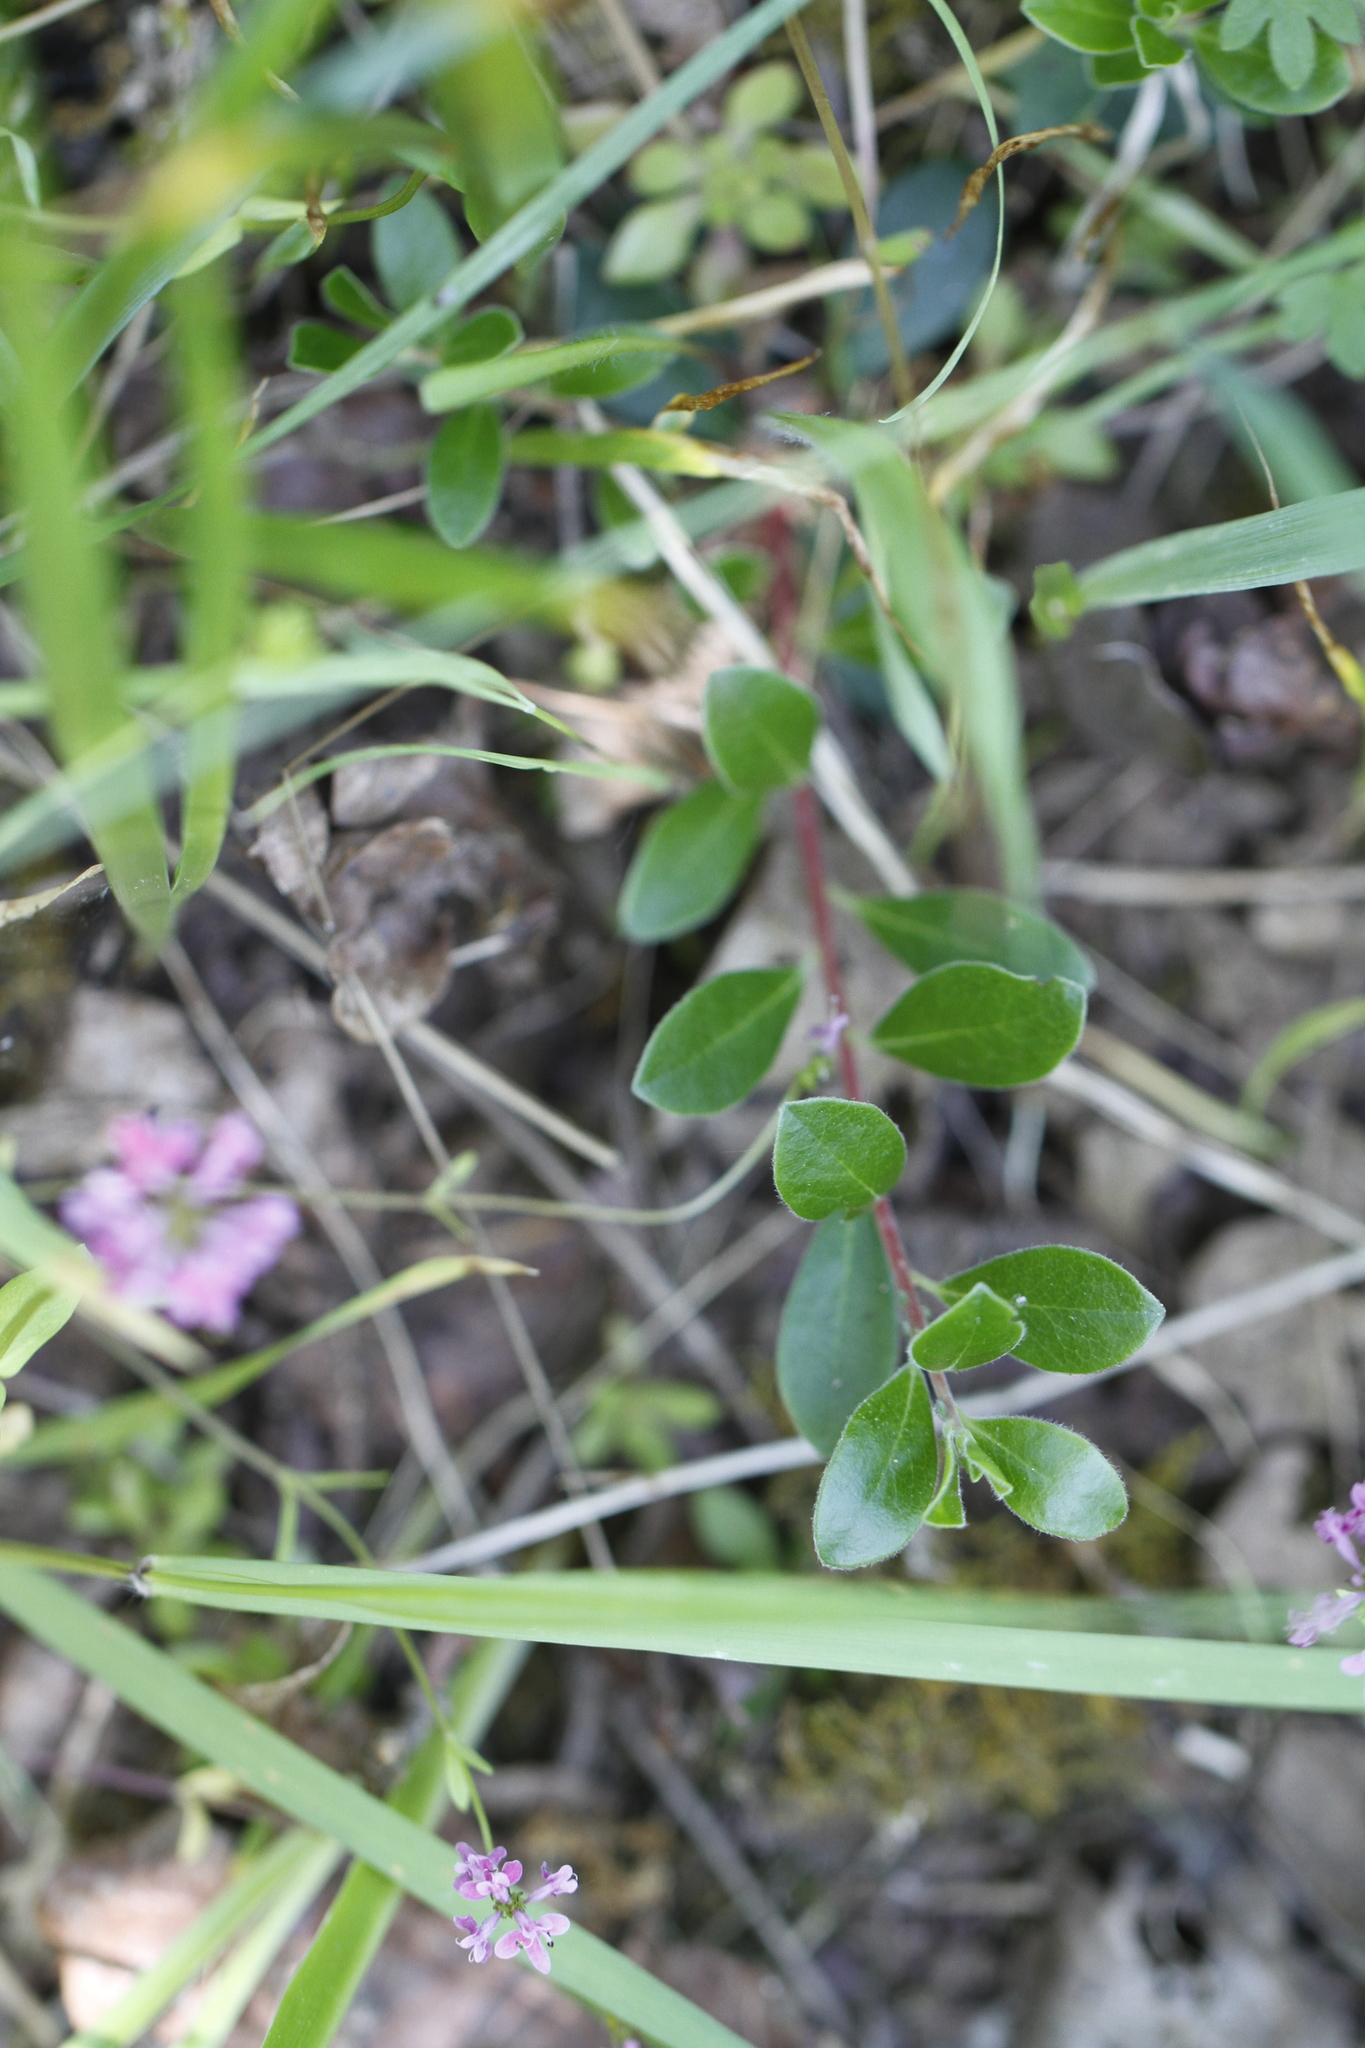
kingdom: Plantae
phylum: Tracheophyta
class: Magnoliopsida
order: Ericales
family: Ericaceae
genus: Arctostaphylos
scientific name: Arctostaphylos uva-ursi
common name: Bearberry
